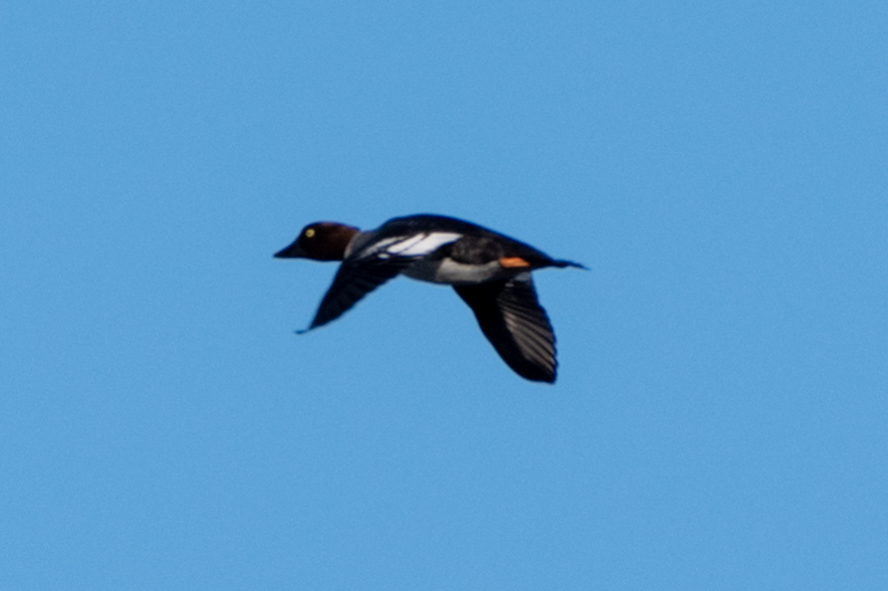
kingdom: Animalia
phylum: Chordata
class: Aves
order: Anseriformes
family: Anatidae
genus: Bucephala
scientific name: Bucephala clangula
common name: Common goldeneye
